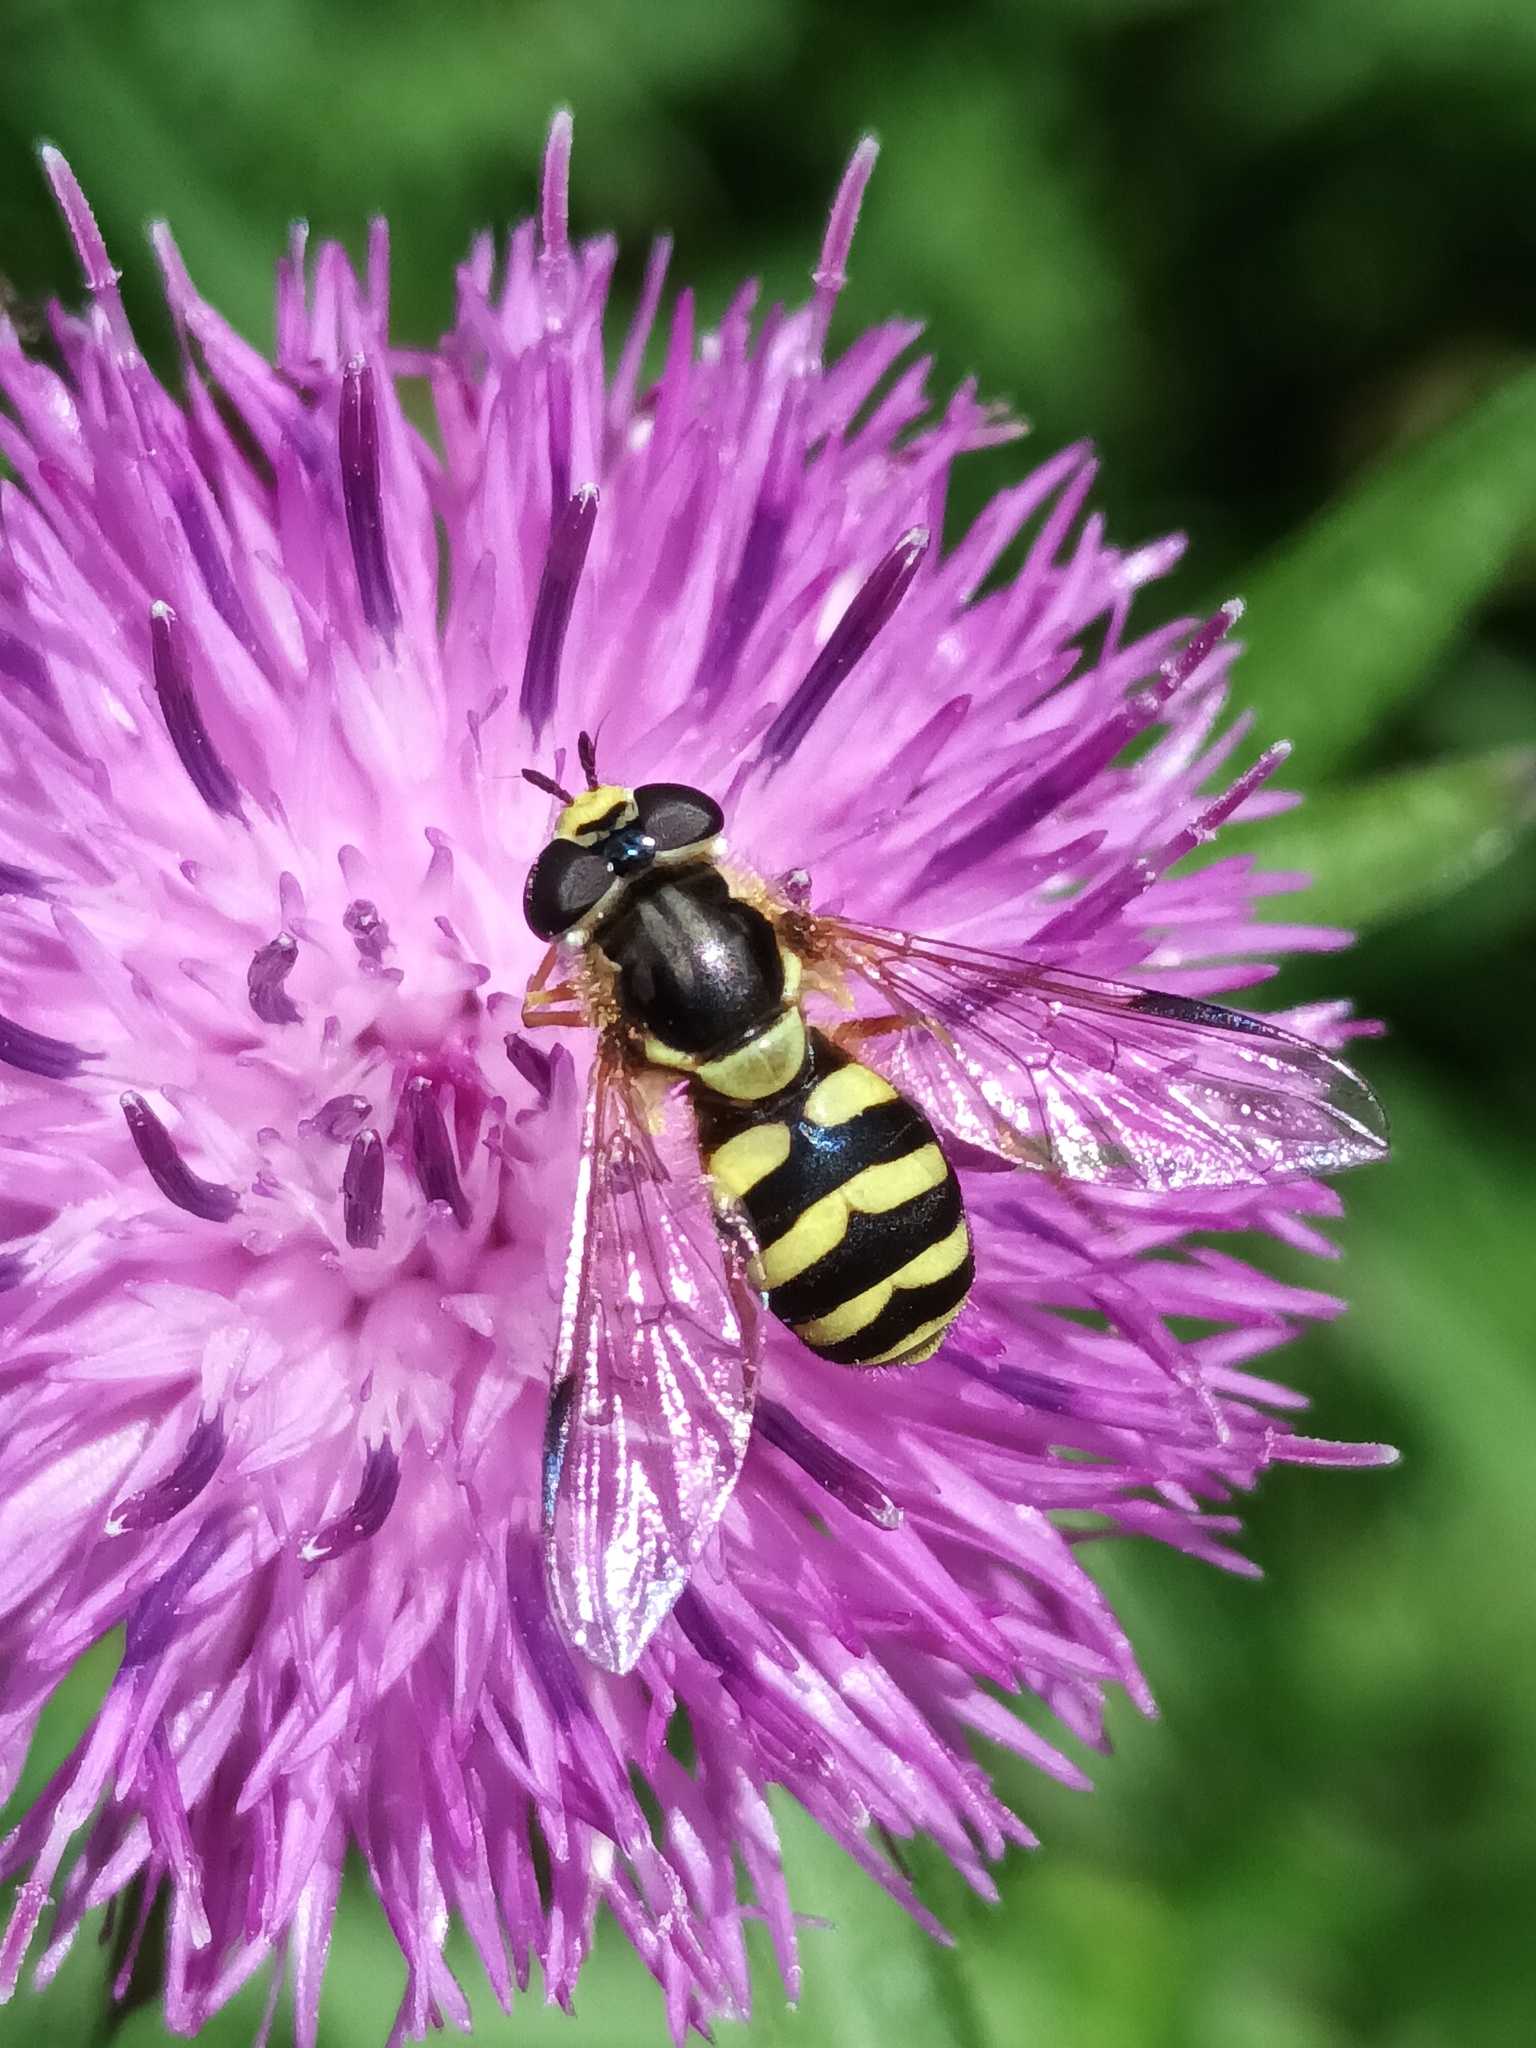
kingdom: Animalia
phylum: Arthropoda
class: Insecta
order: Diptera
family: Syrphidae
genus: Dasysyrphus
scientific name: Dasysyrphus albostriatus
